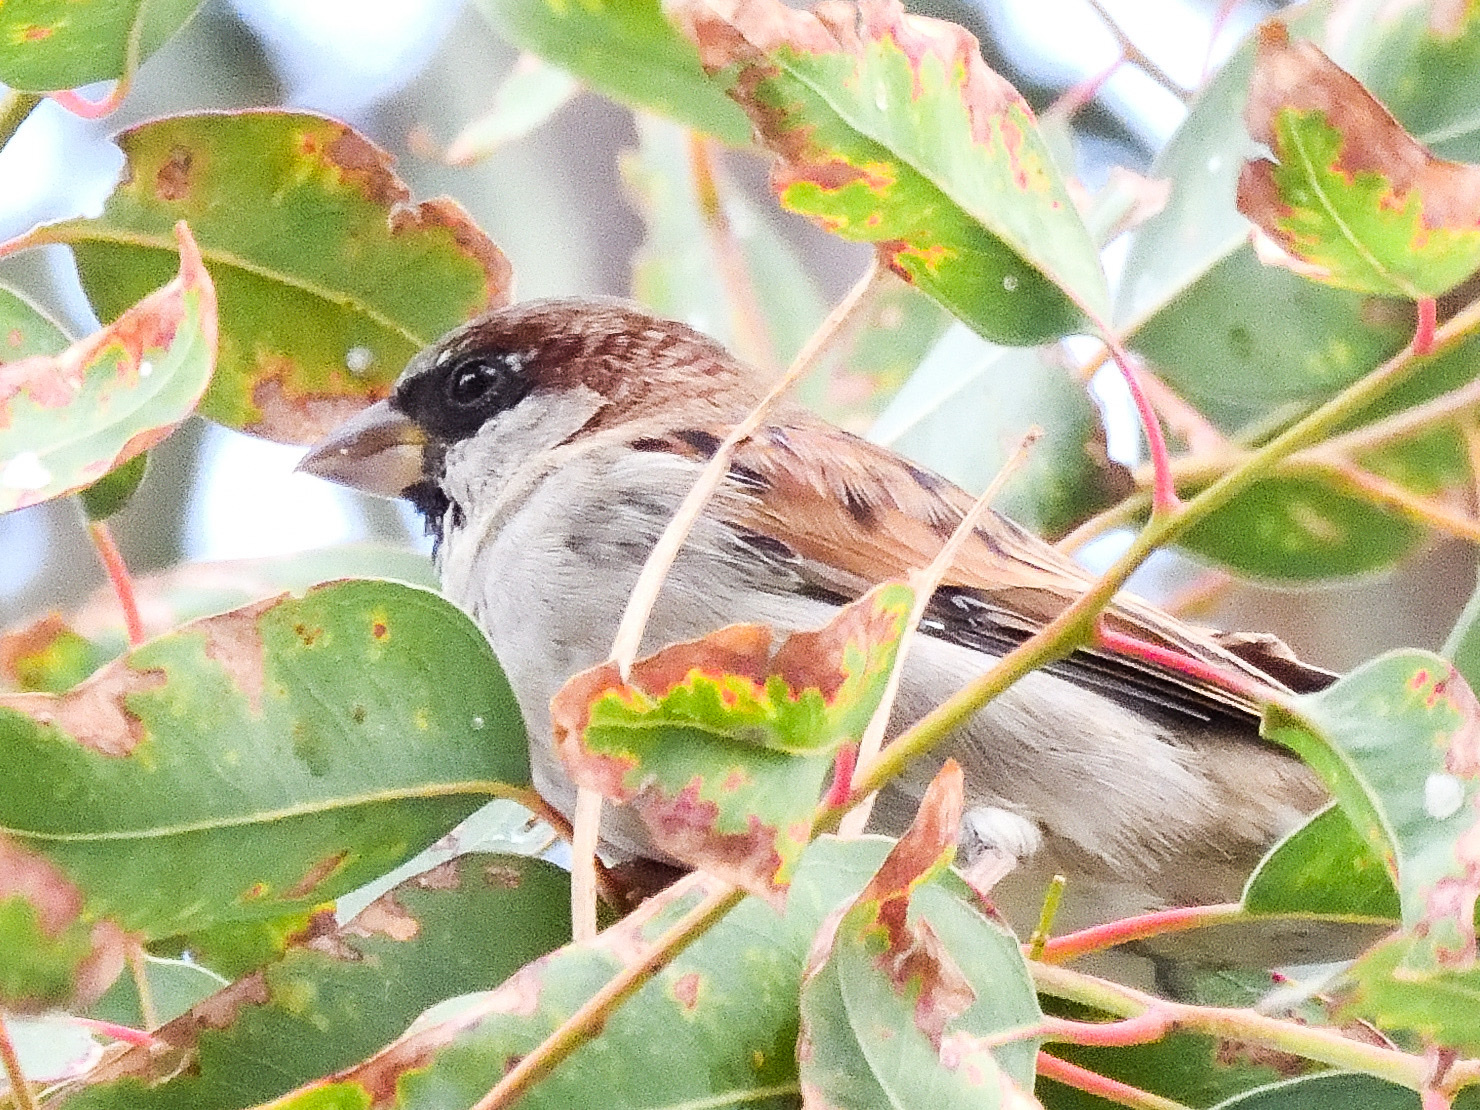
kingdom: Animalia
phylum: Chordata
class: Aves
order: Passeriformes
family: Passeridae
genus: Passer
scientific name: Passer domesticus
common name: House sparrow
